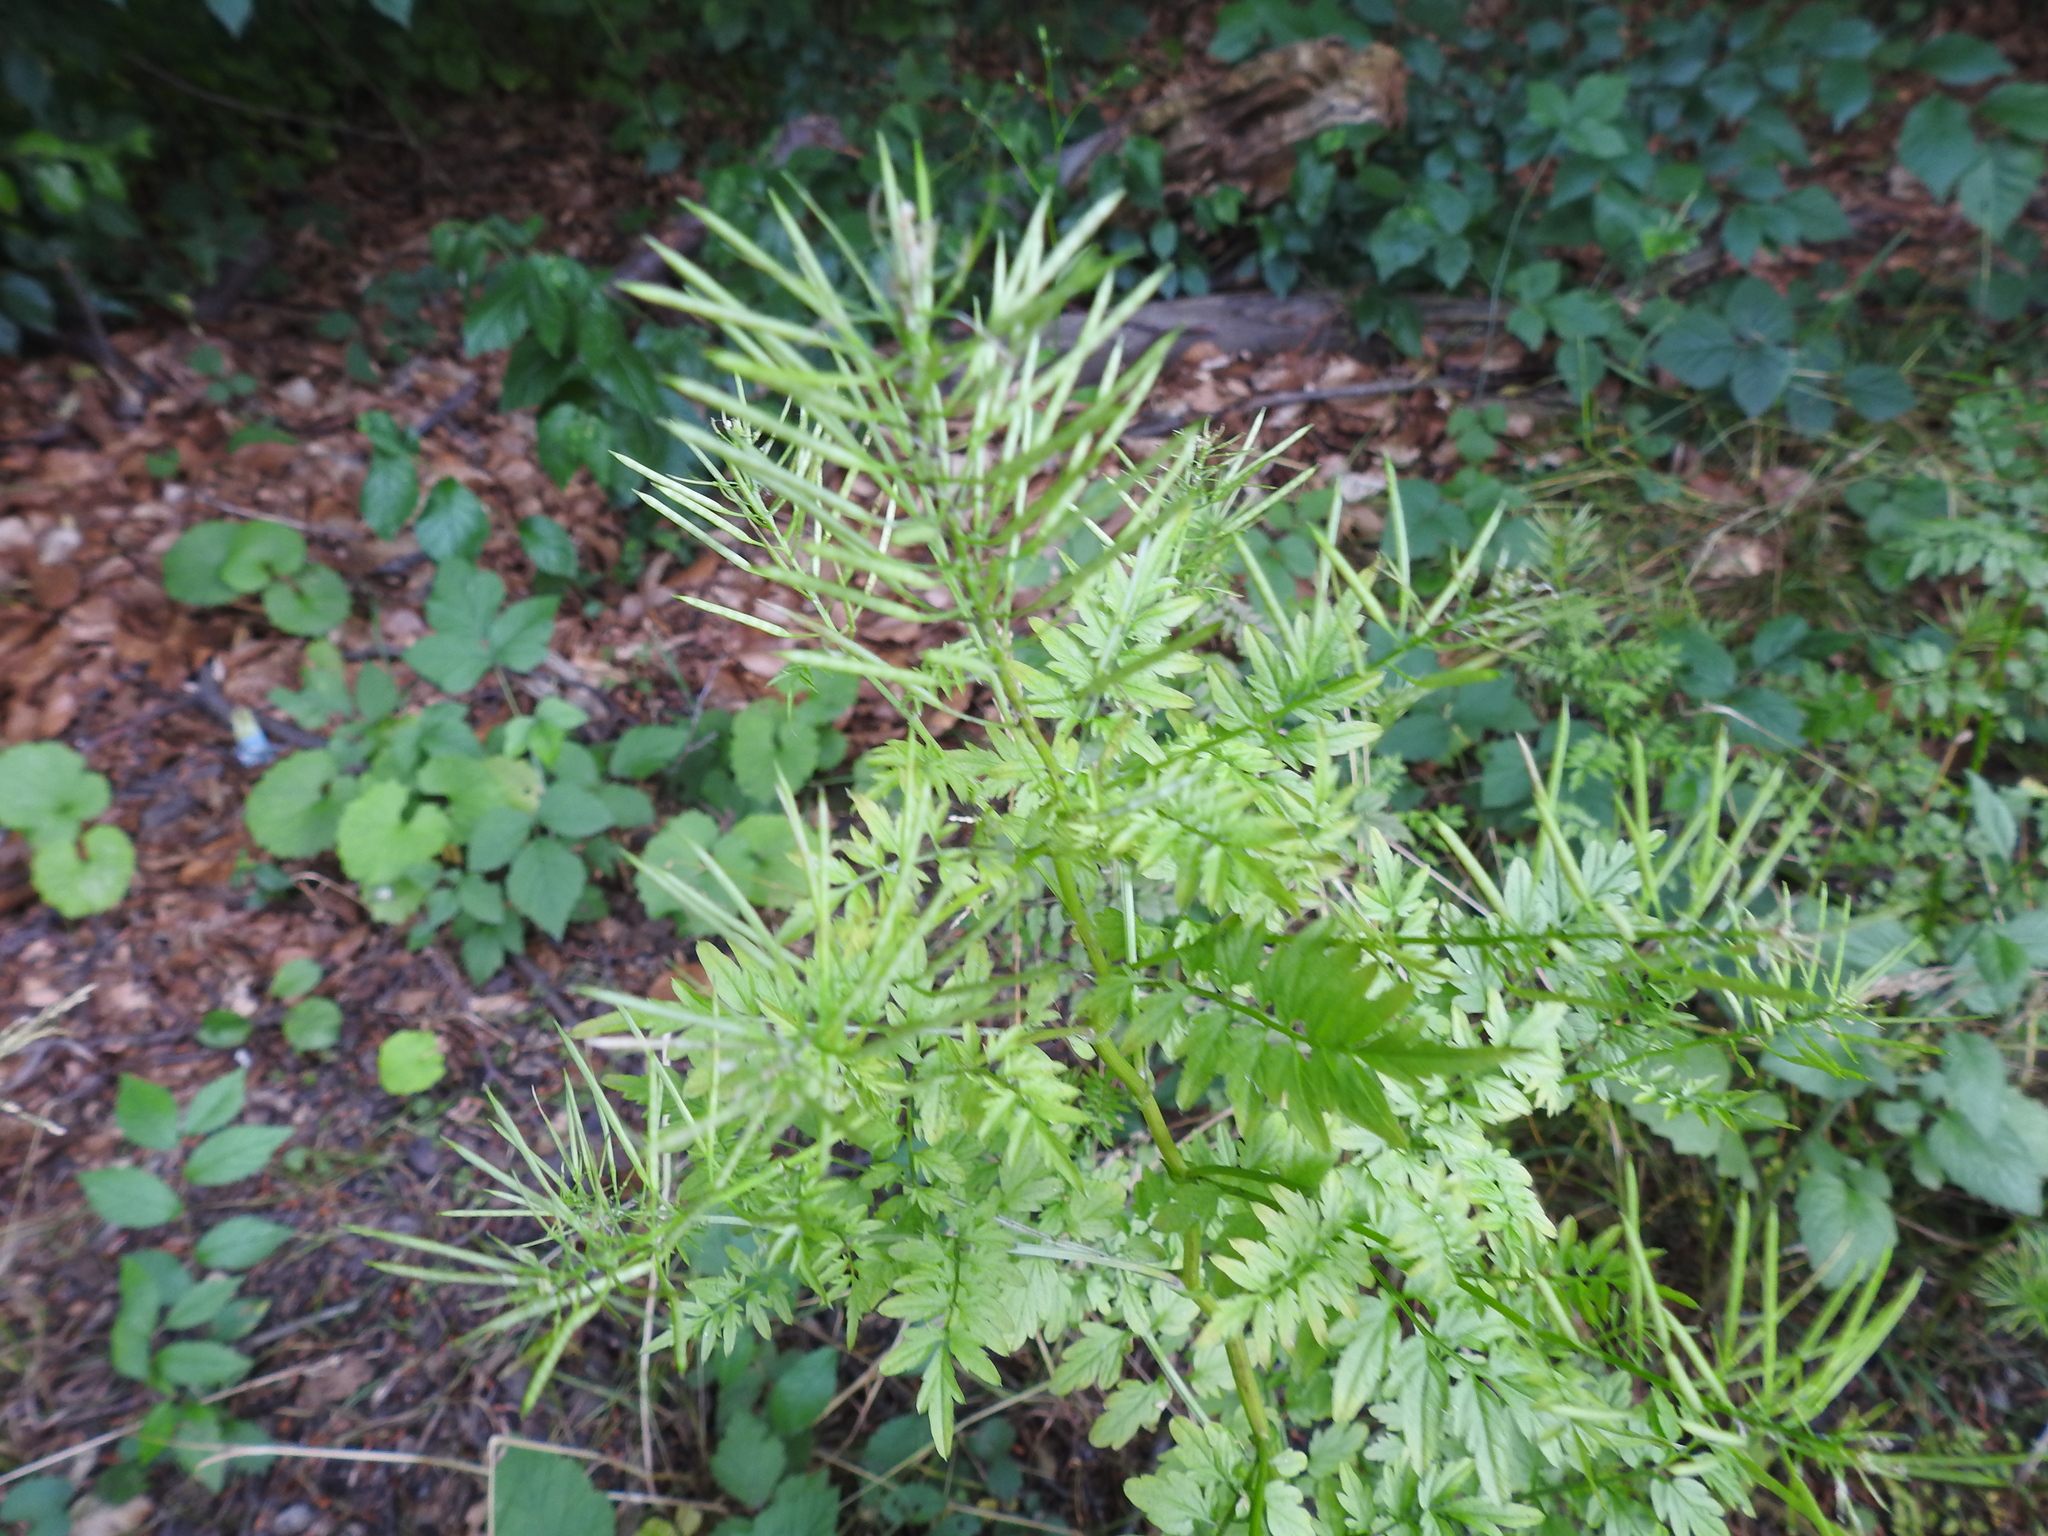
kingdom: Plantae
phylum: Tracheophyta
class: Magnoliopsida
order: Brassicales
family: Brassicaceae
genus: Cardamine
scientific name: Cardamine impatiens
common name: Narrow-leaved bitter-cress
